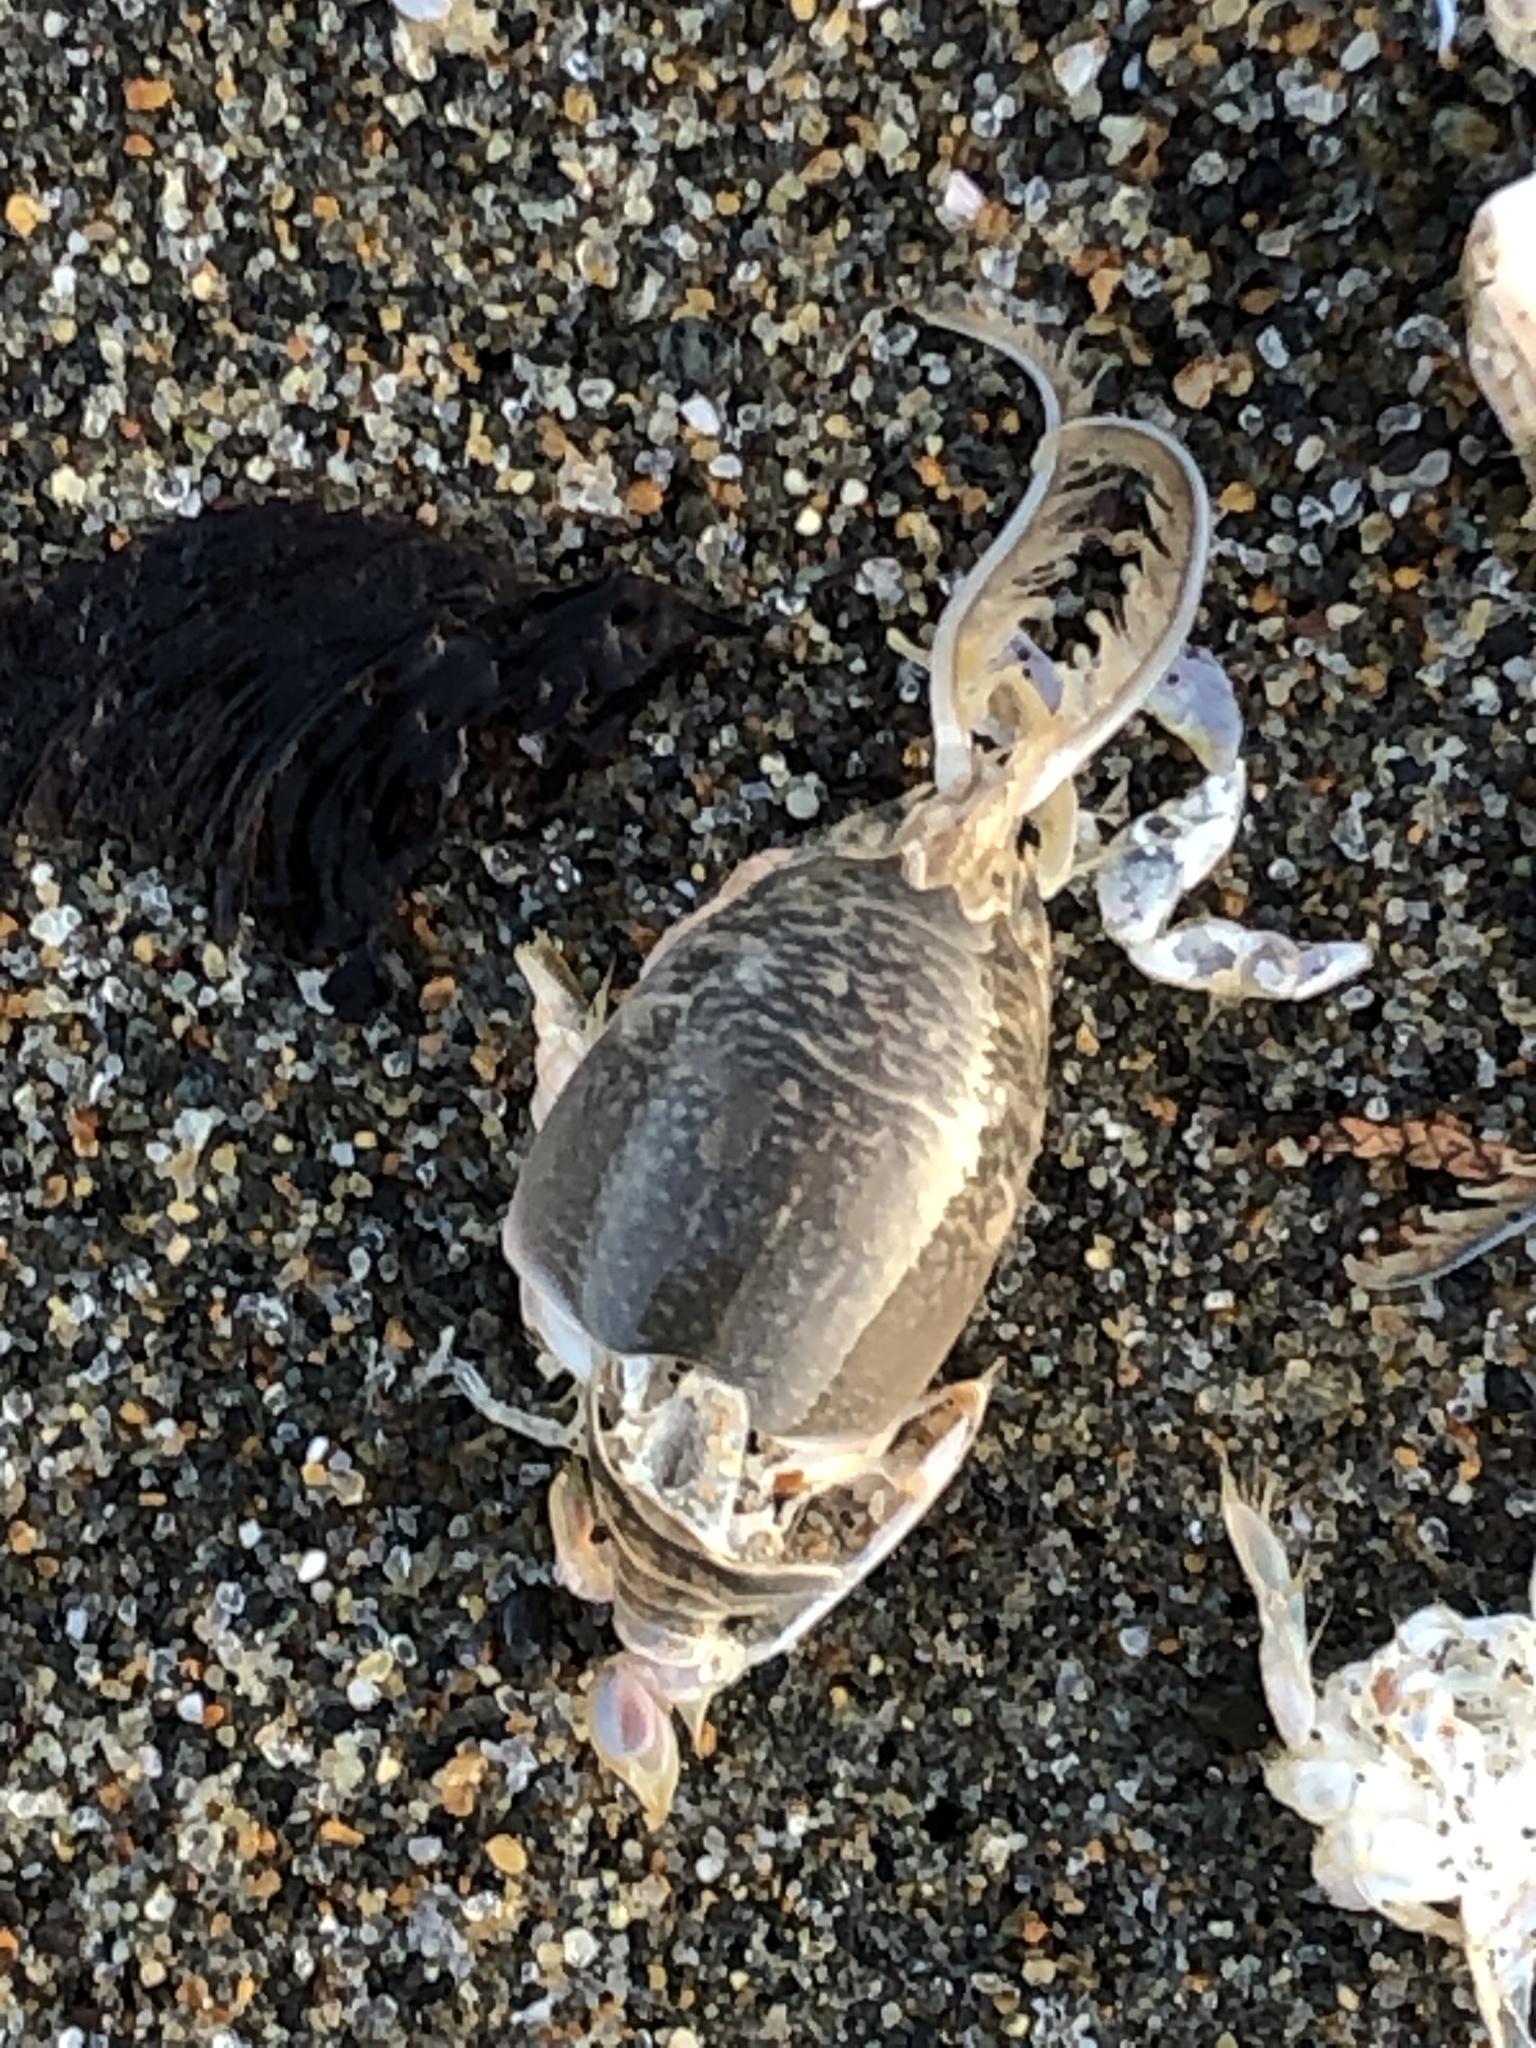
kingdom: Animalia
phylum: Arthropoda
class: Malacostraca
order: Decapoda
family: Hippidae
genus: Emerita
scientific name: Emerita analoga
